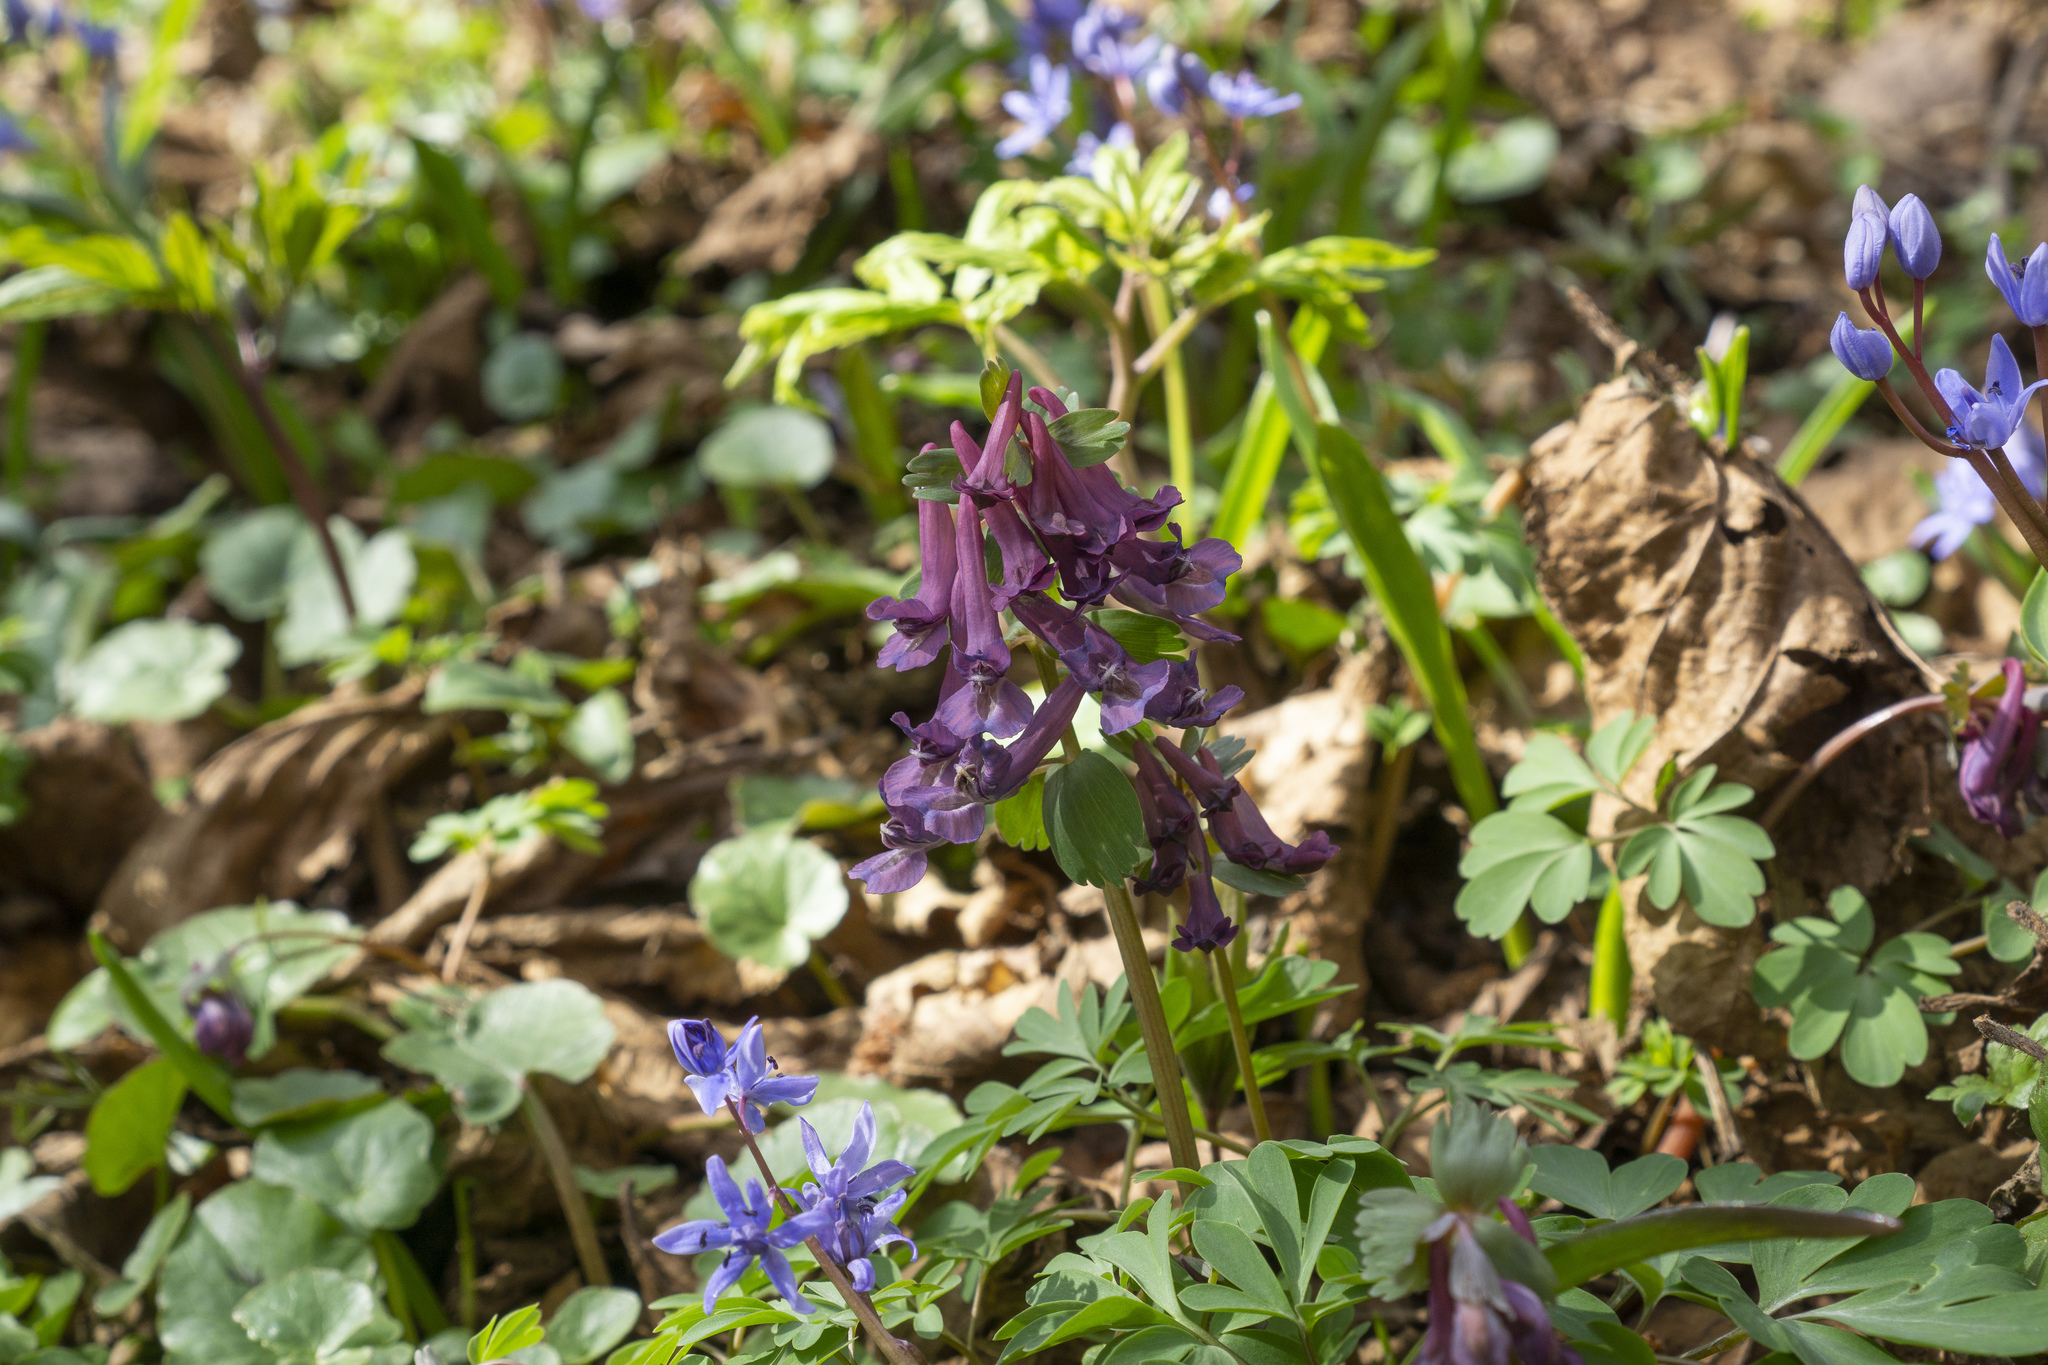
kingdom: Plantae
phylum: Tracheophyta
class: Magnoliopsida
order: Ranunculales
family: Papaveraceae
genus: Corydalis
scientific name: Corydalis solida
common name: Bird-in-a-bush
